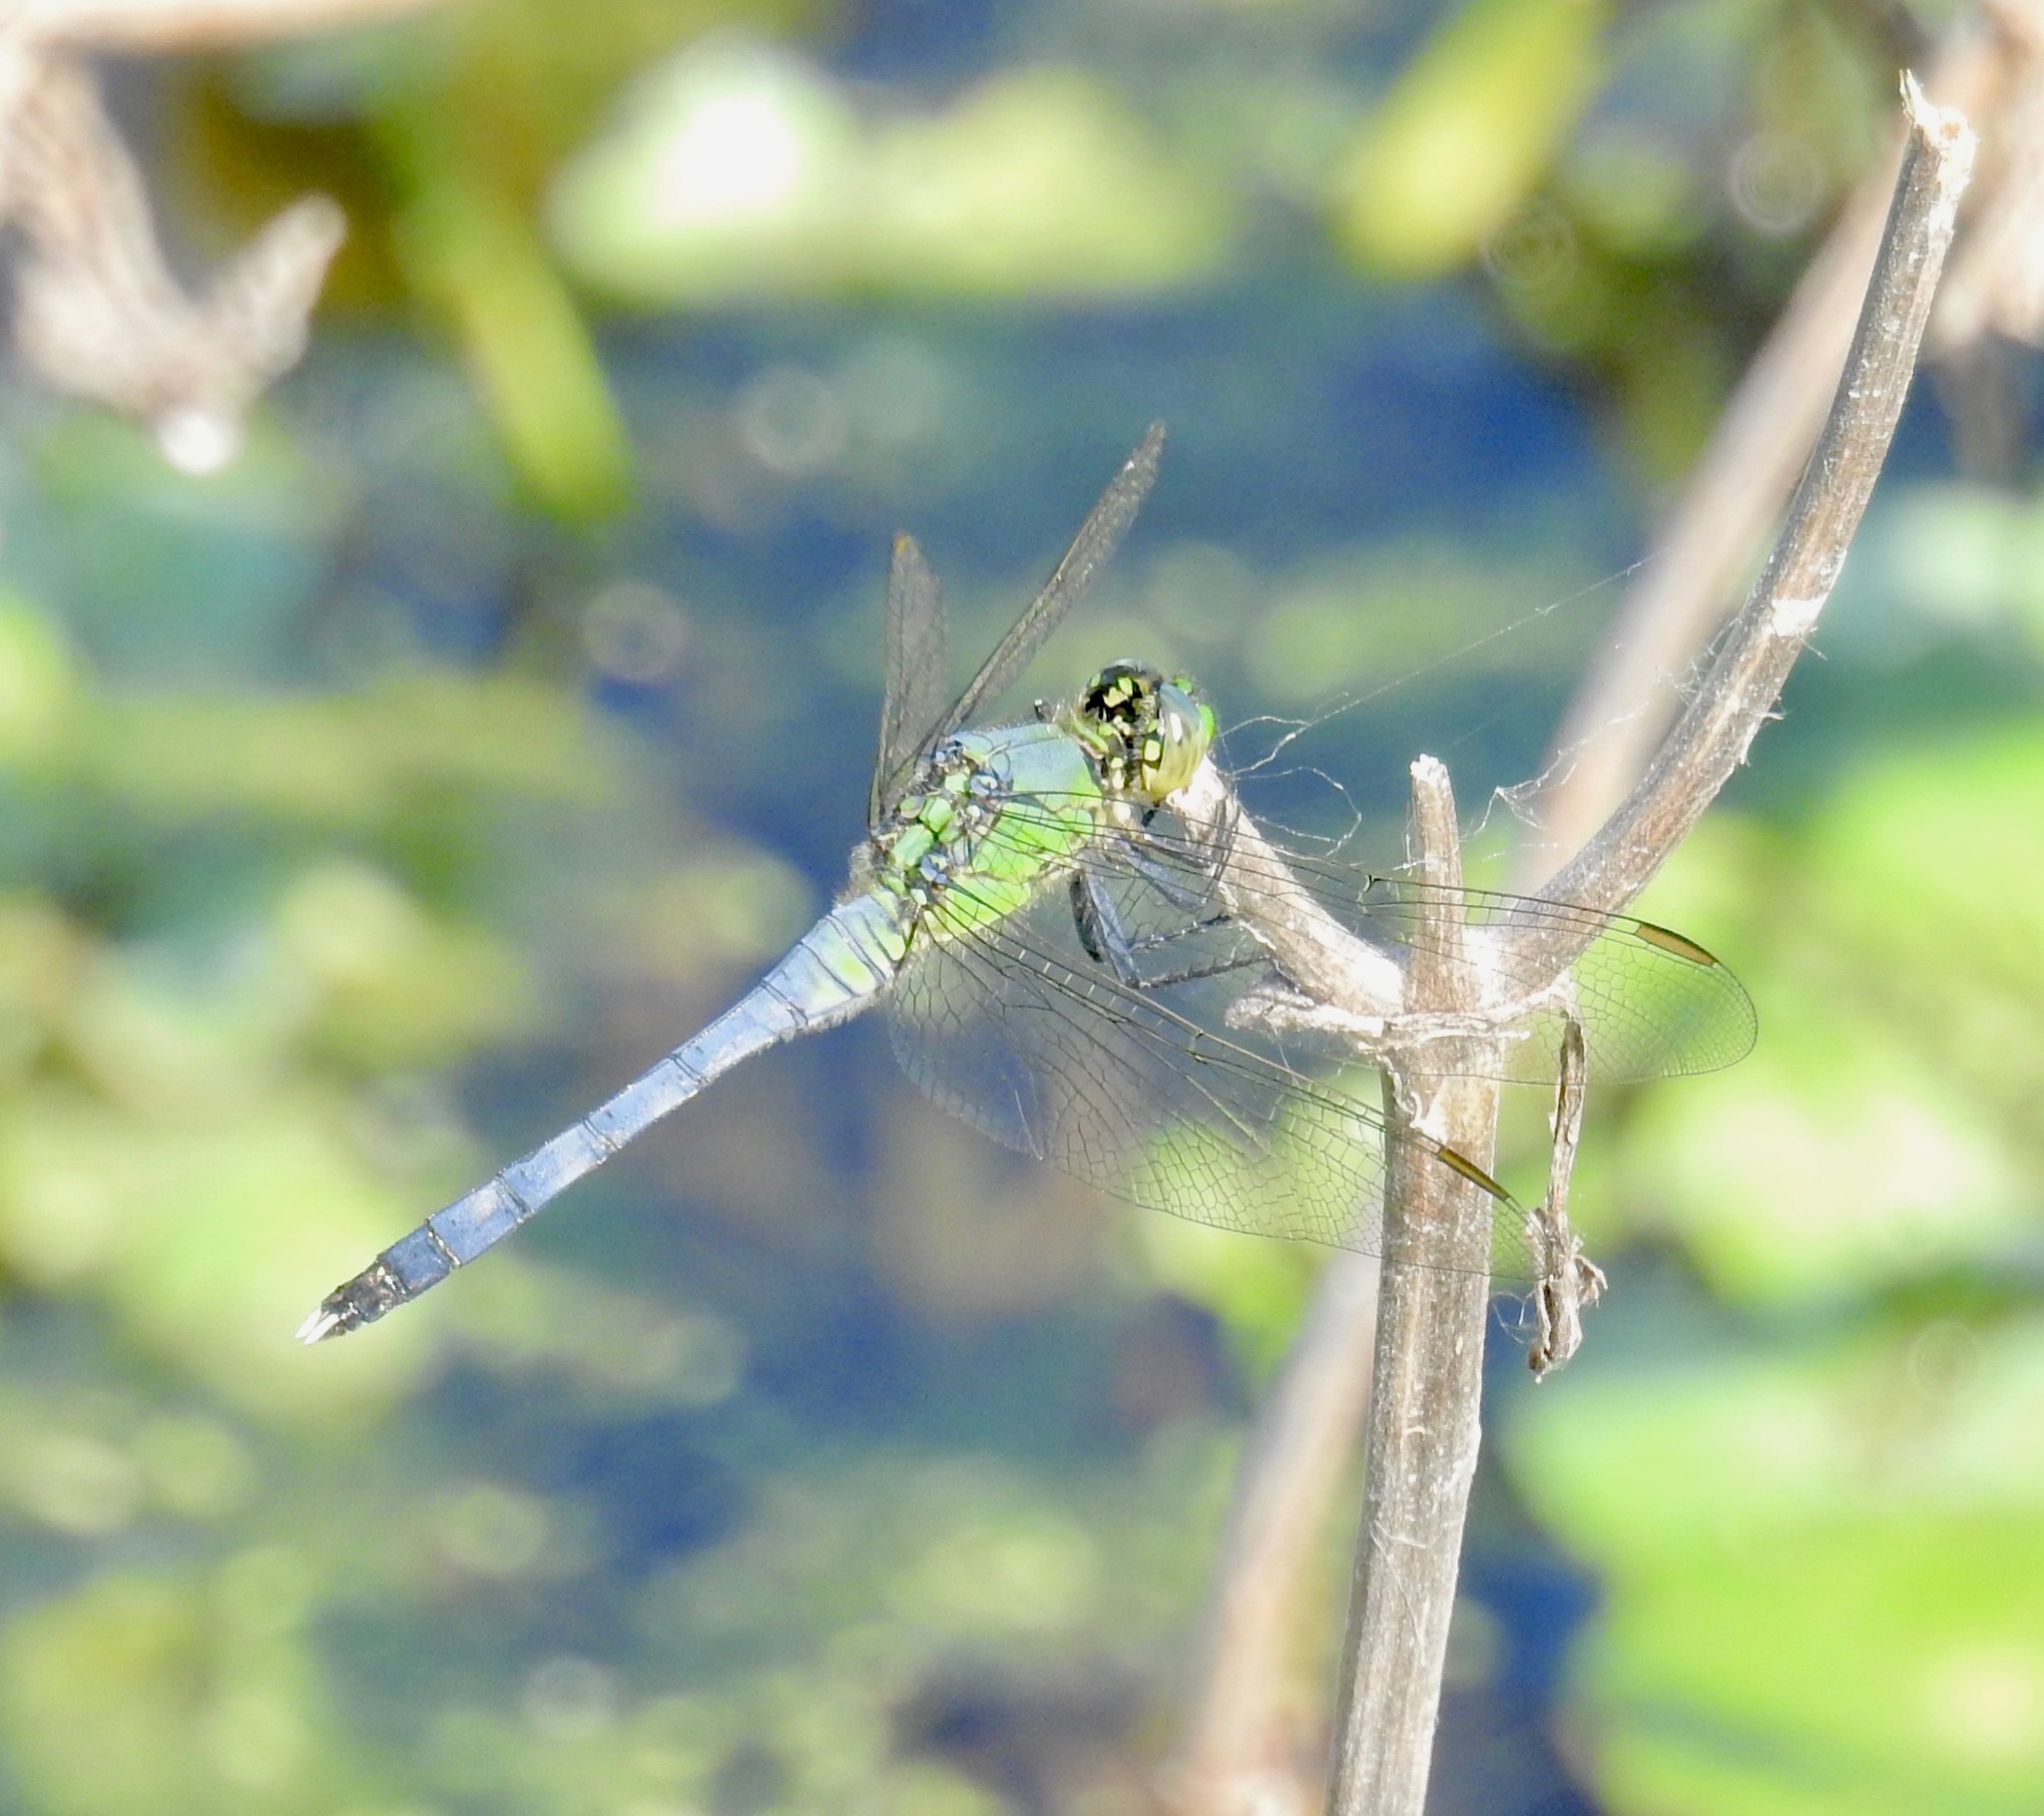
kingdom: Animalia
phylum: Arthropoda
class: Insecta
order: Odonata
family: Libellulidae
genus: Erythemis
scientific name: Erythemis simplicicollis
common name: Eastern pondhawk
